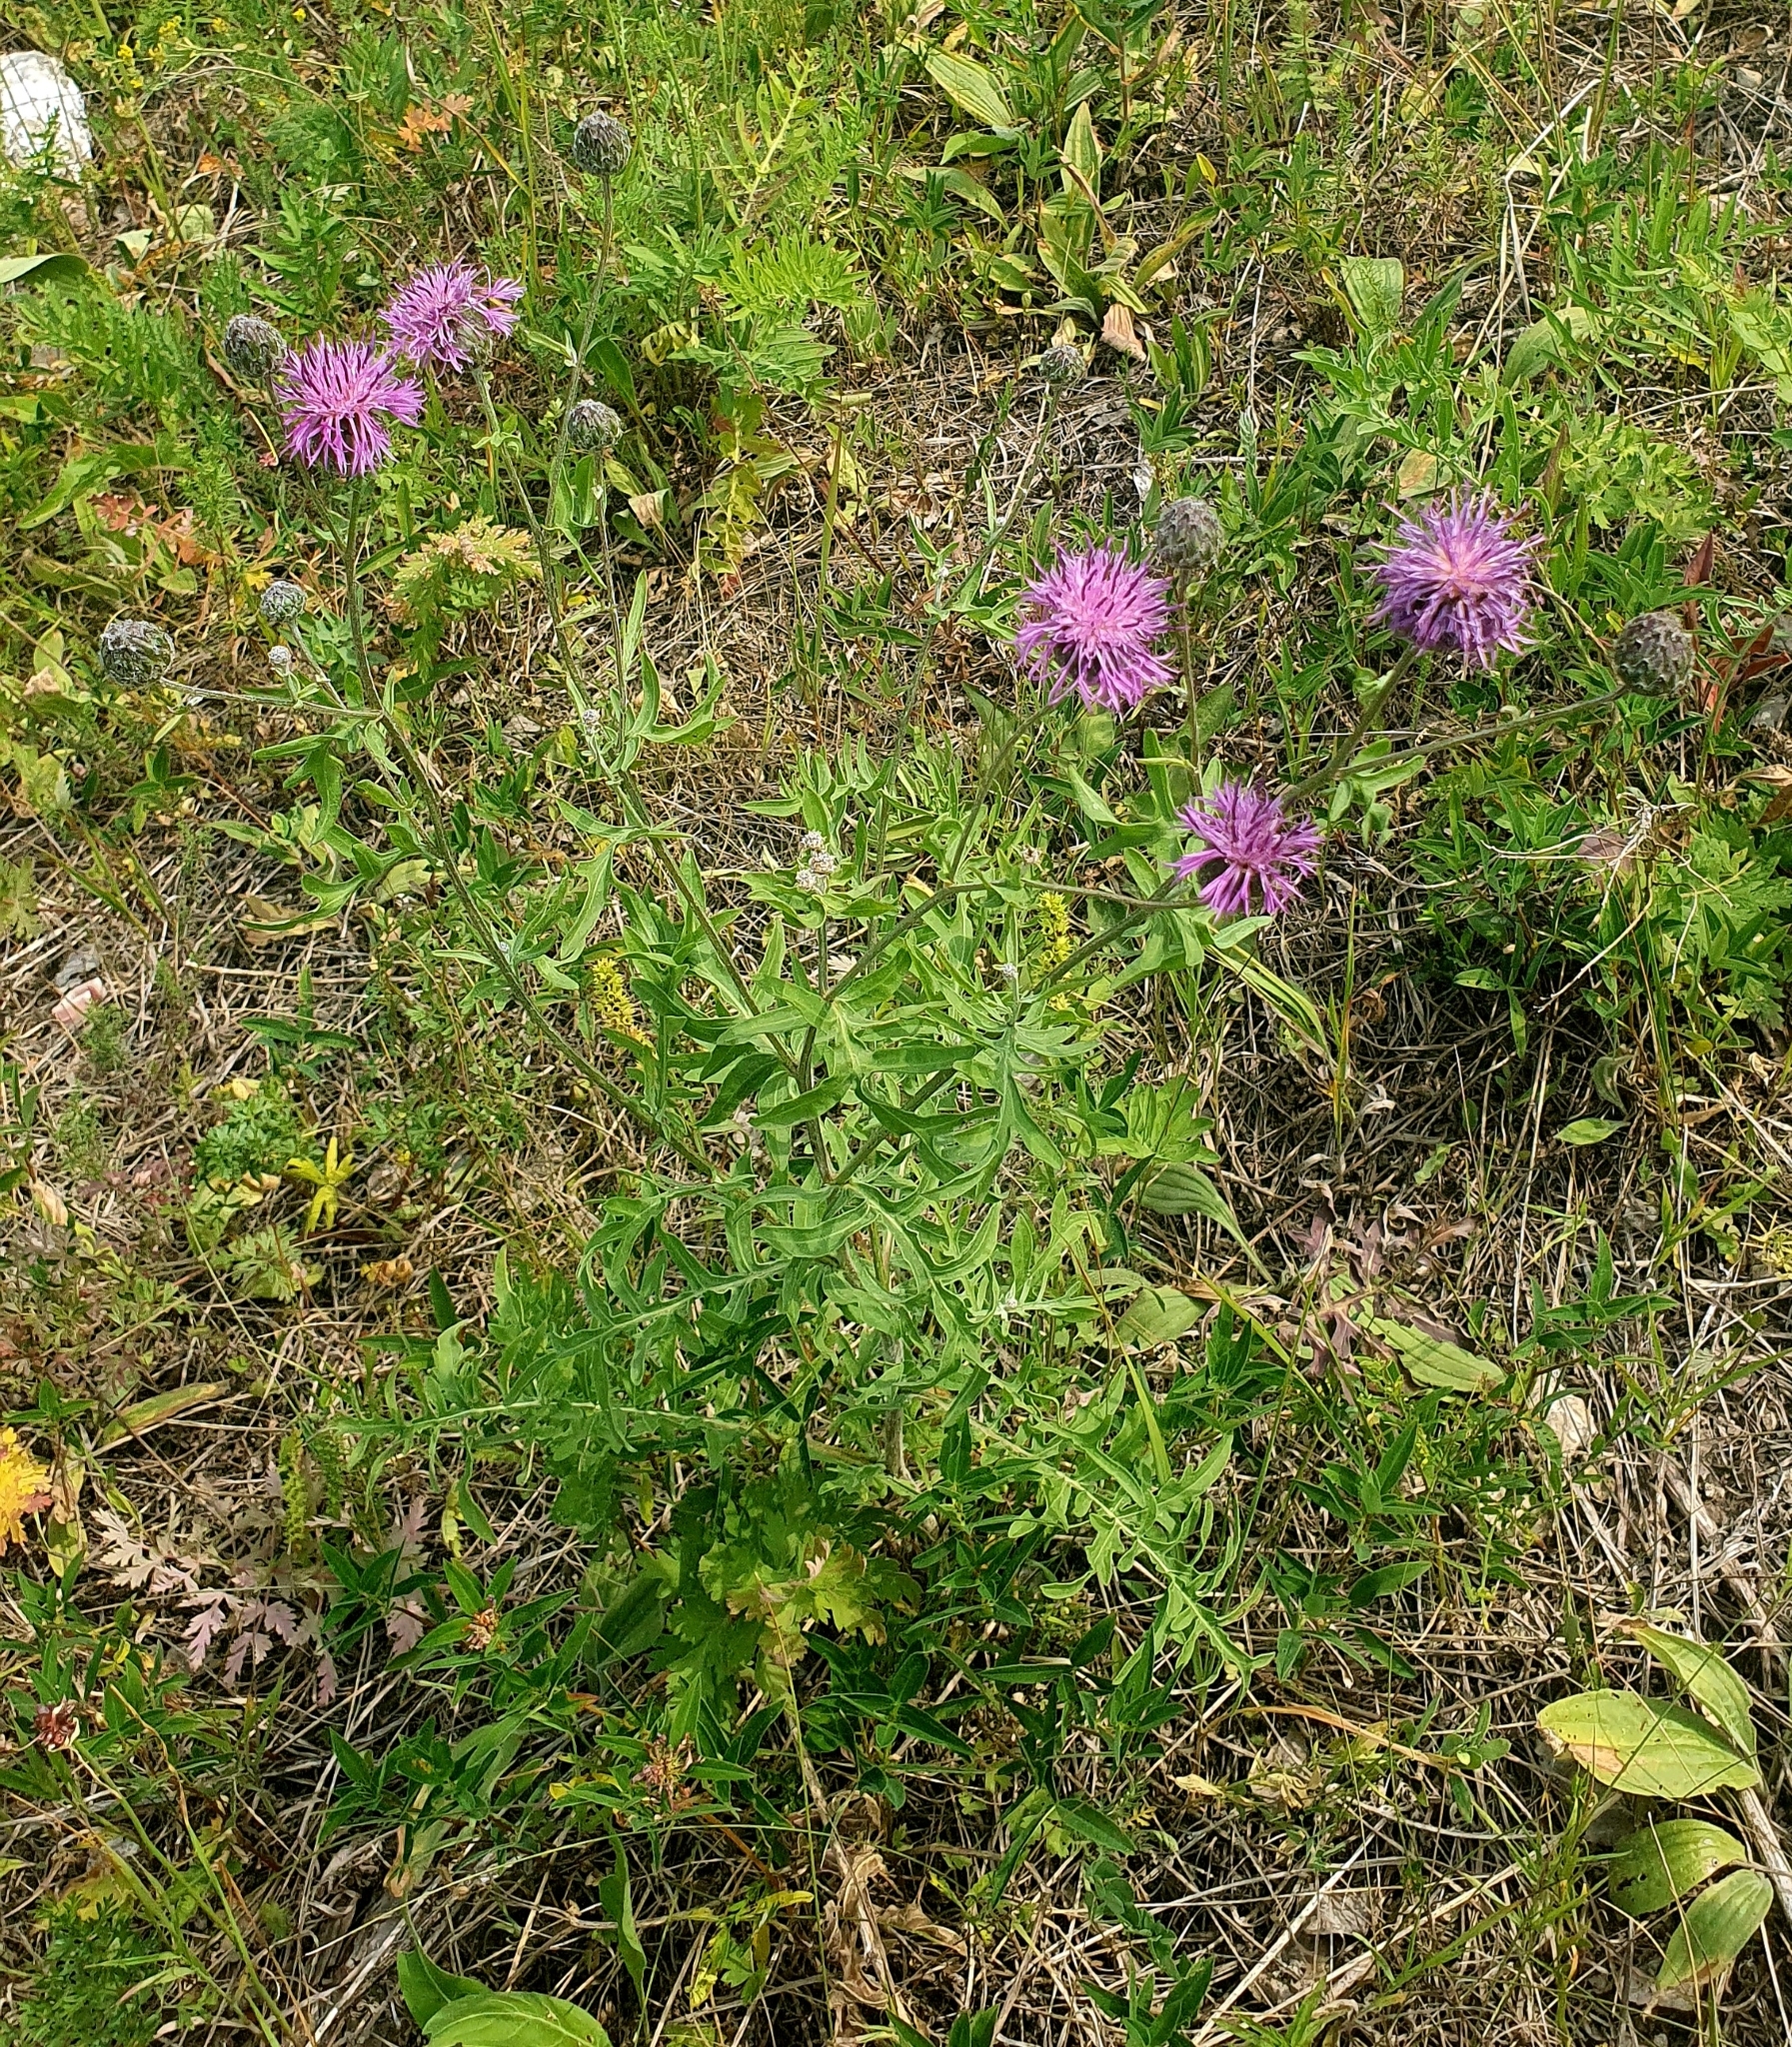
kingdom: Plantae
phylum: Tracheophyta
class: Magnoliopsida
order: Asterales
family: Asteraceae
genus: Centaurea
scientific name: Centaurea scabiosa
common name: Greater knapweed
